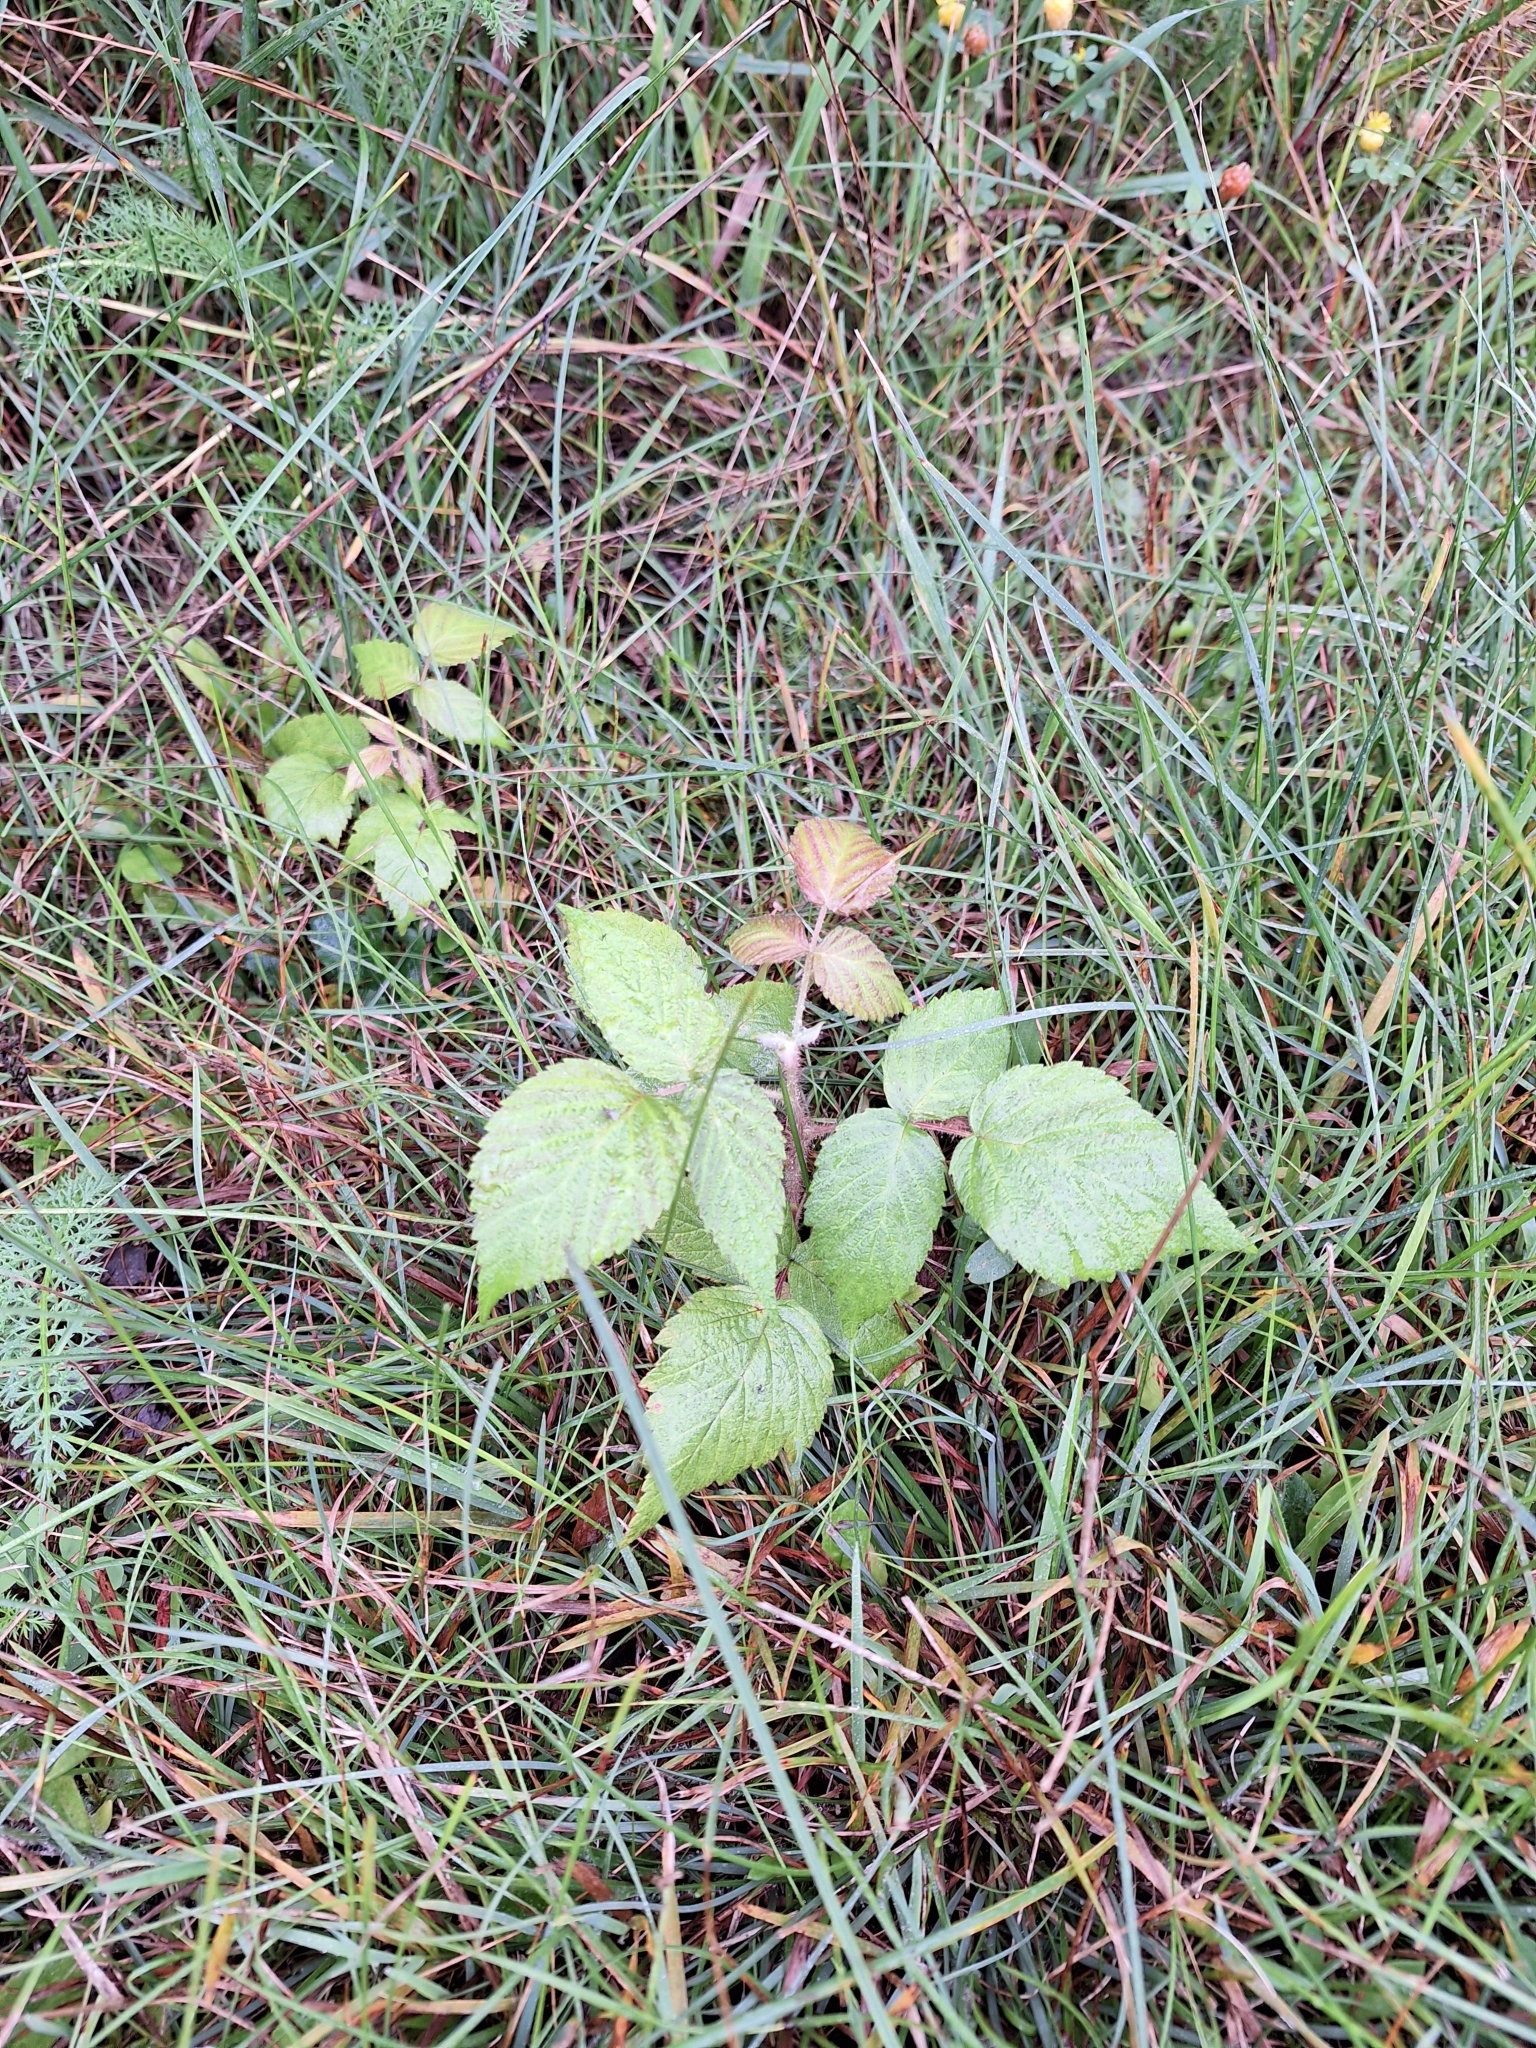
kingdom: Plantae
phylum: Tracheophyta
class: Magnoliopsida
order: Rosales
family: Rosaceae
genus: Rubus
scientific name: Rubus phoenicolasius
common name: Japanese wineberry
